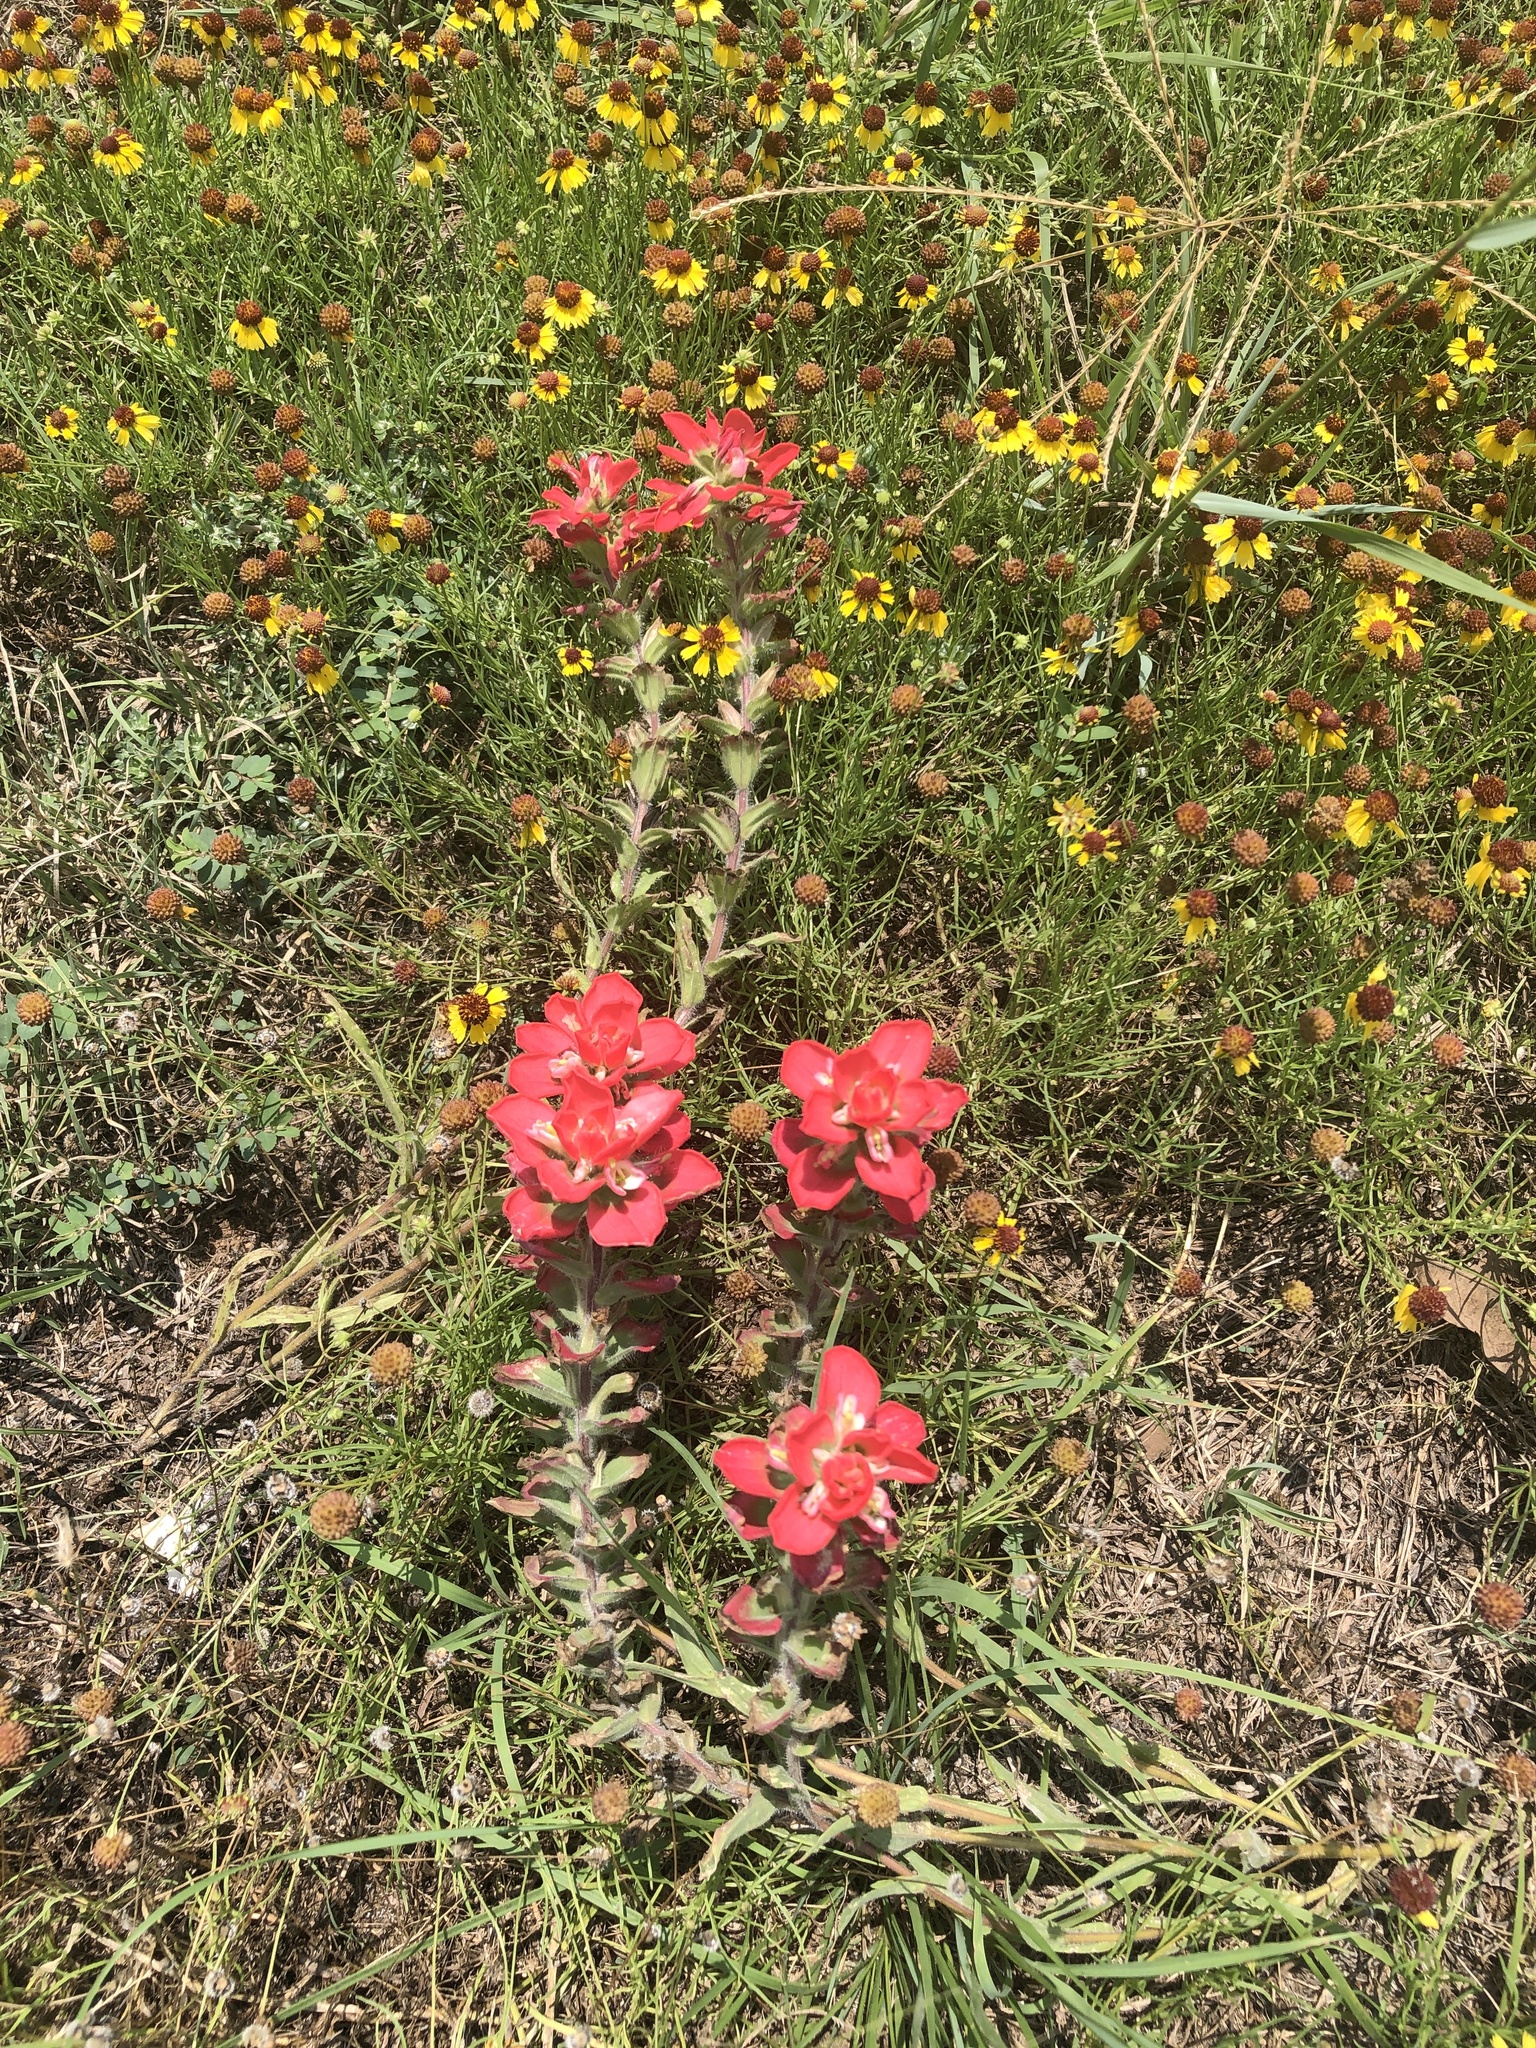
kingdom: Plantae
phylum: Tracheophyta
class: Magnoliopsida
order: Lamiales
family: Orobanchaceae
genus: Castilleja
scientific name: Castilleja indivisa
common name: Texas paintbrush
